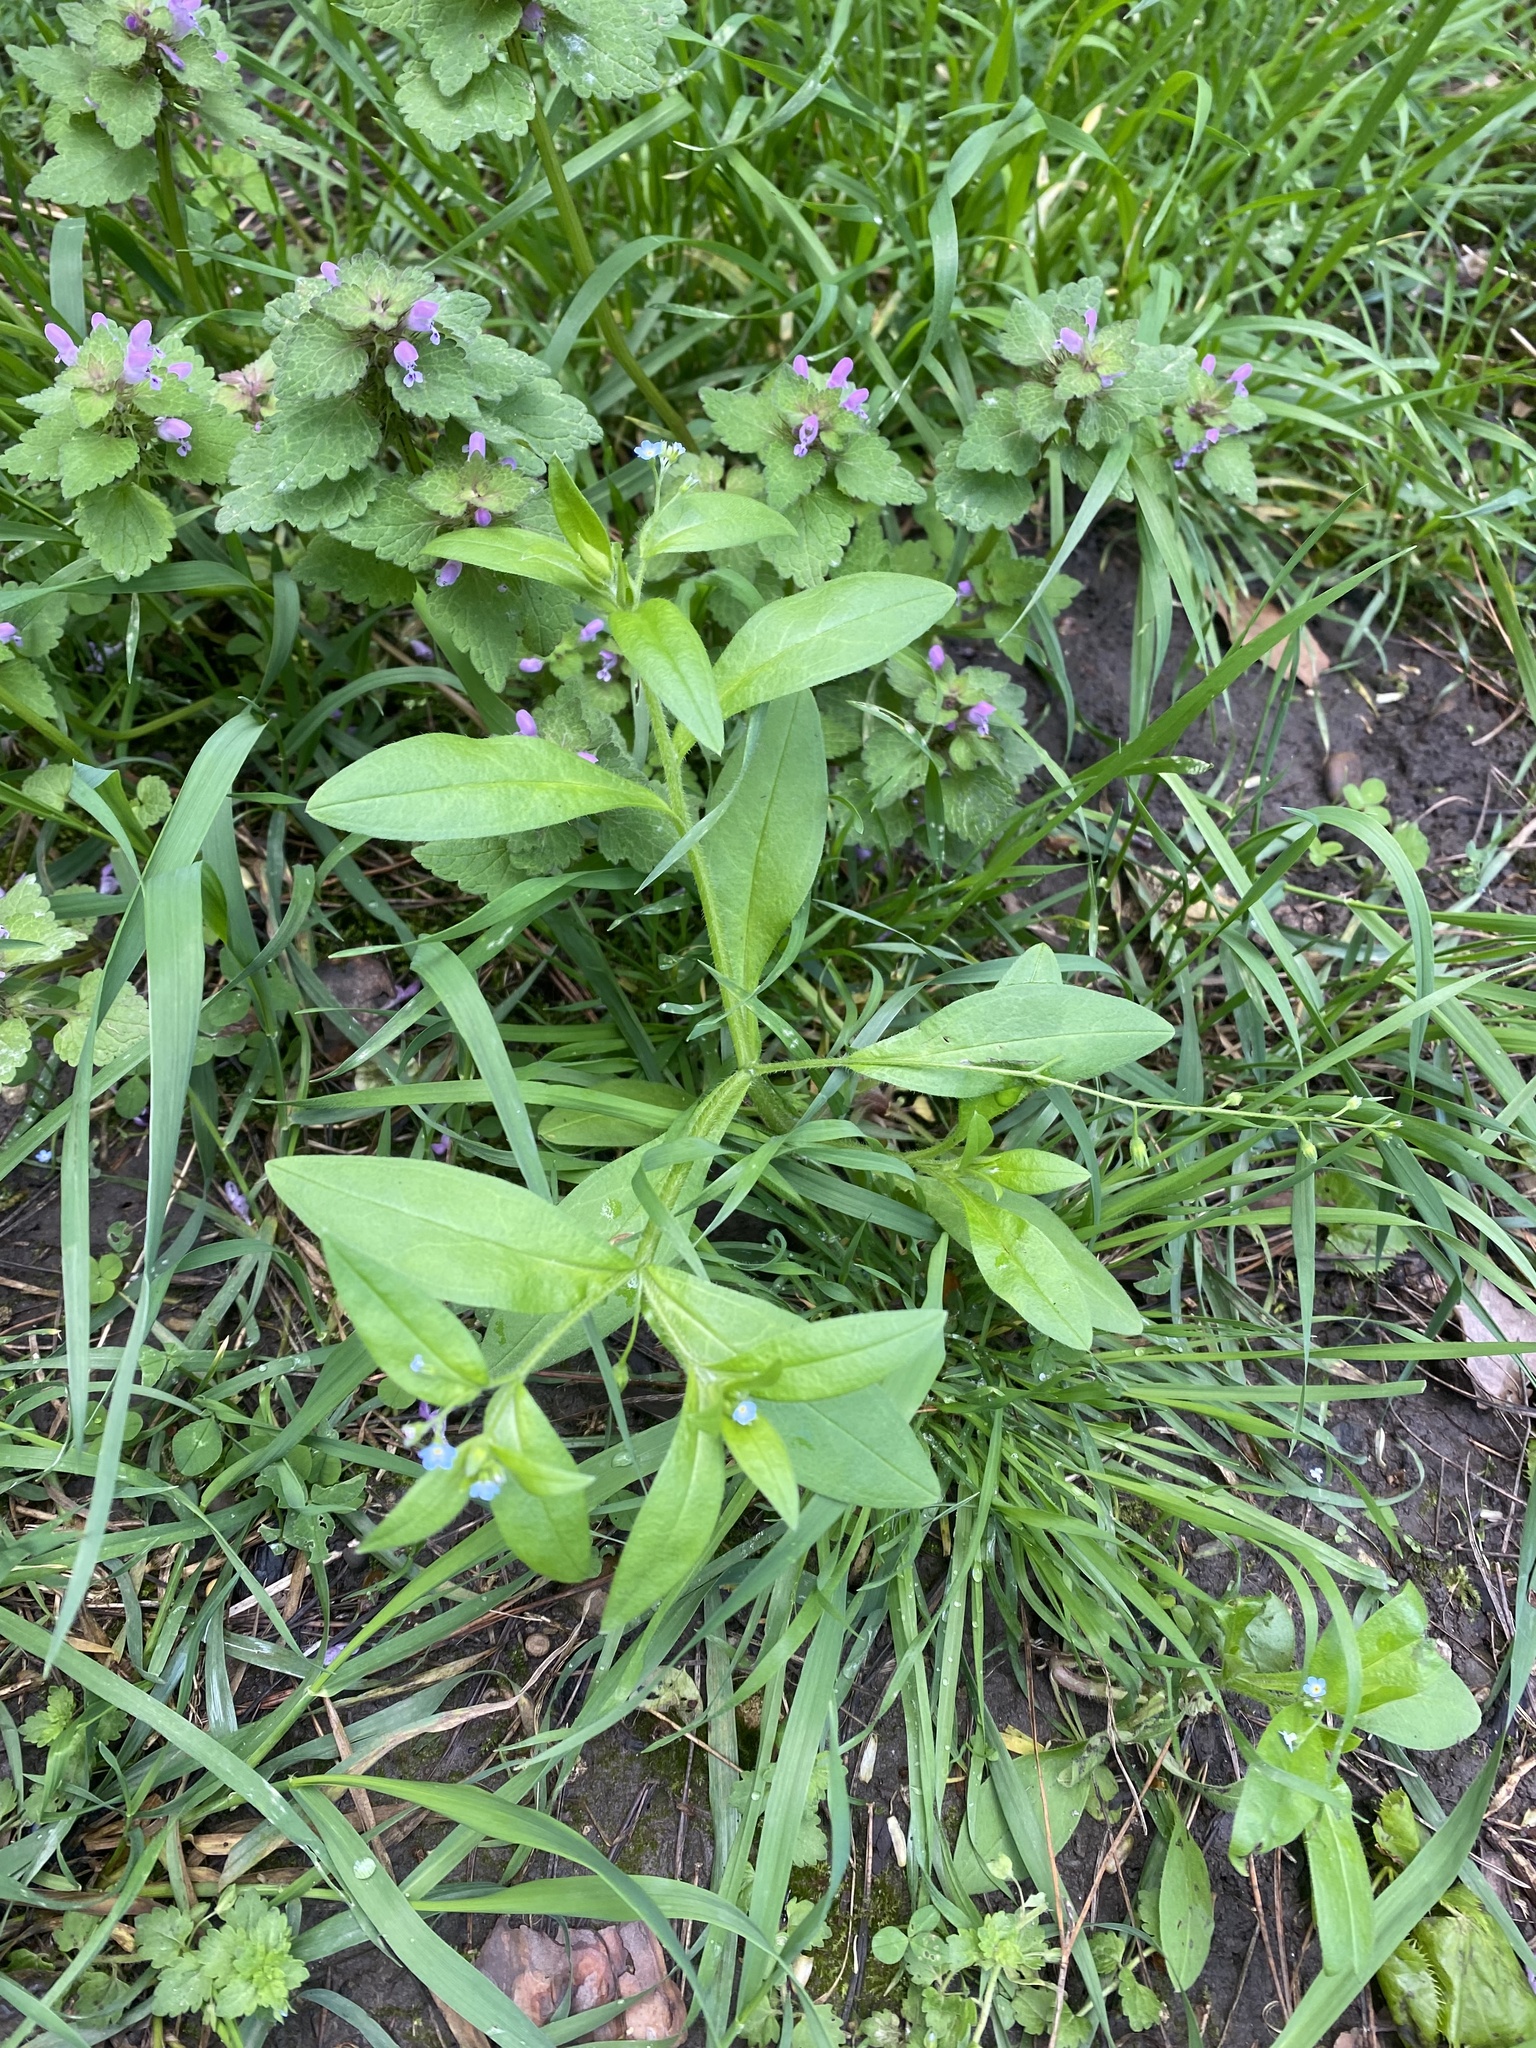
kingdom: Plantae
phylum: Tracheophyta
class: Magnoliopsida
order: Boraginales
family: Boraginaceae
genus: Myosotis
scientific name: Myosotis sparsiflora
